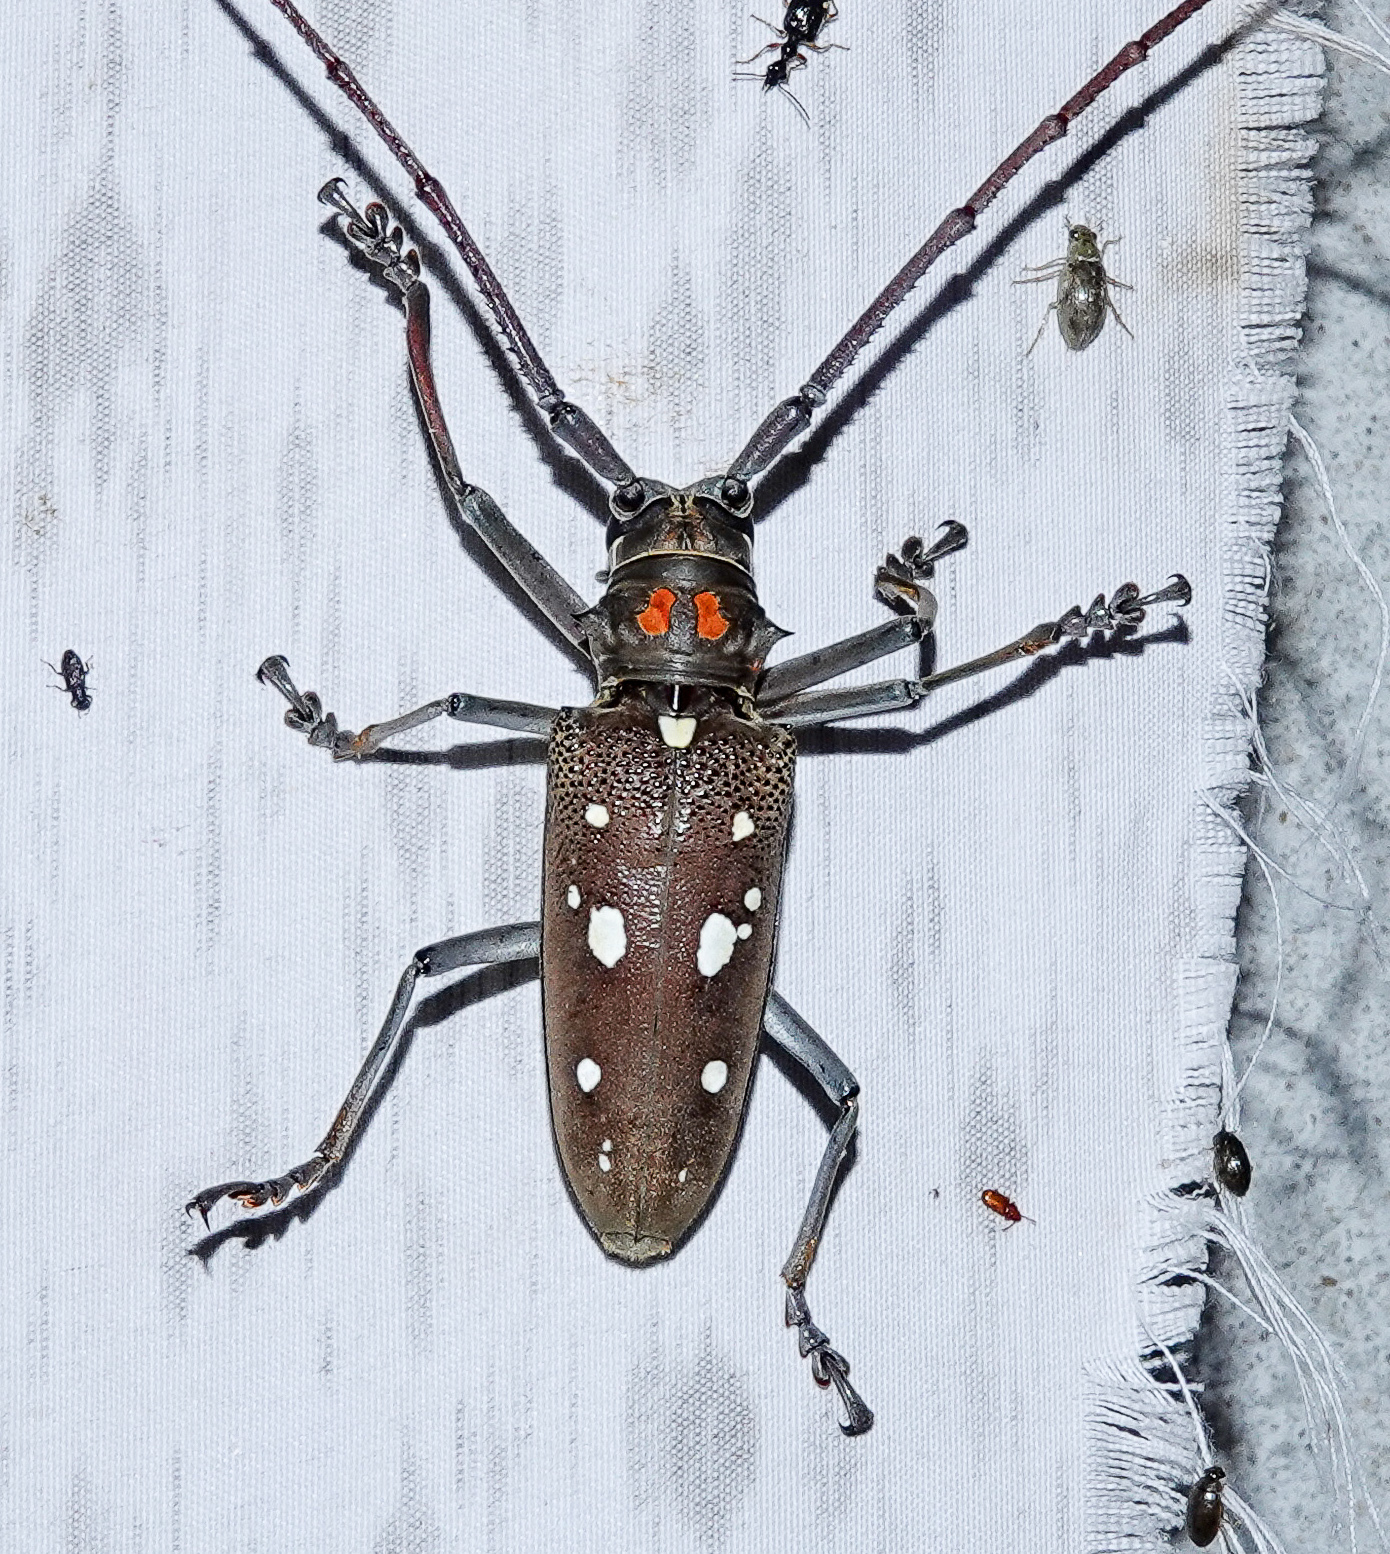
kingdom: Animalia
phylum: Arthropoda
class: Insecta
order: Coleoptera
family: Cerambycidae
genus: Batocera
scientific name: Batocera rubus
